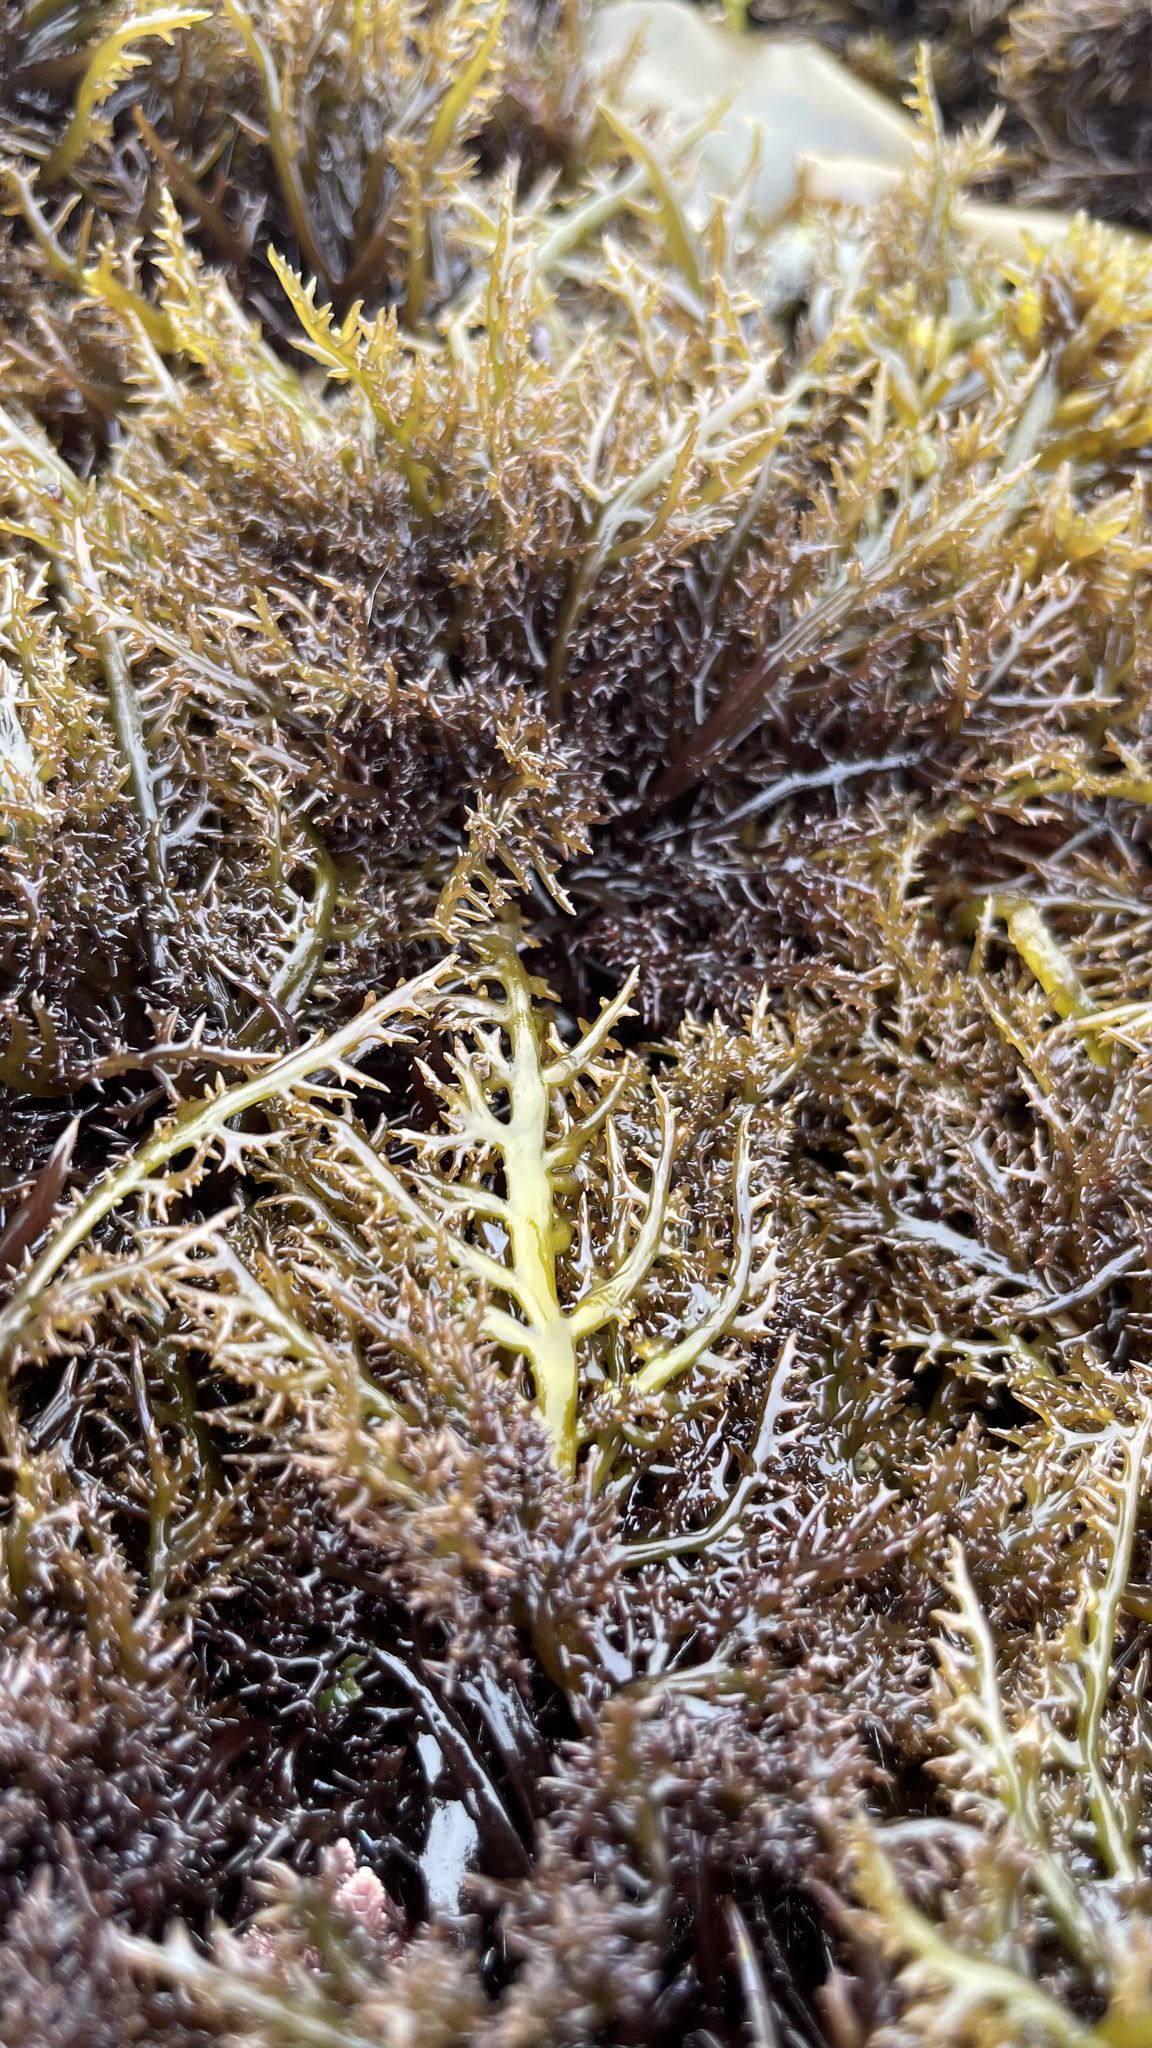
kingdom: Plantae
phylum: Rhodophyta
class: Florideophyceae
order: Gigartinales
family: Gigartinaceae
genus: Chondracanthus
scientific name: Chondracanthus canaliculatus
